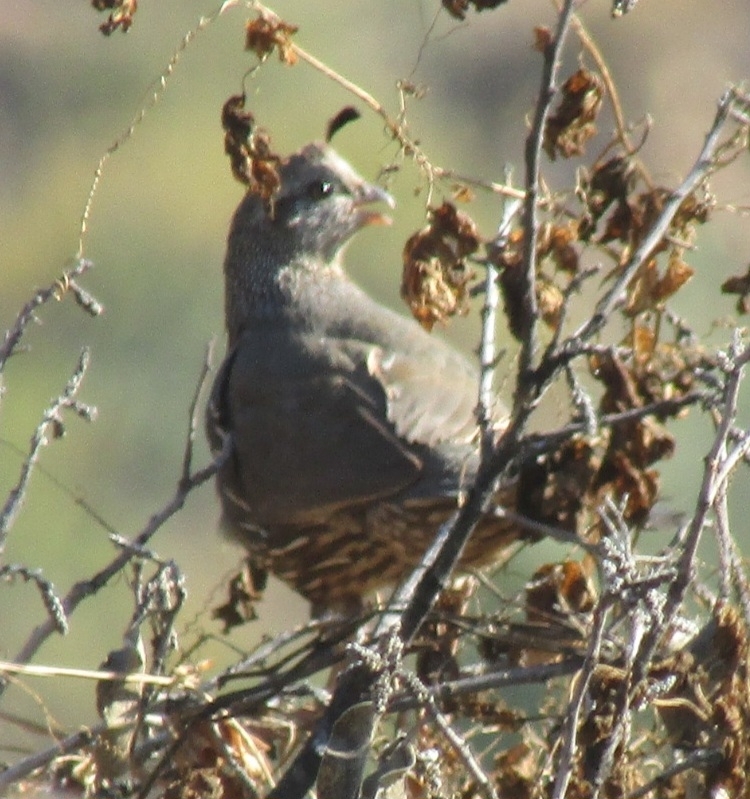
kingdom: Animalia
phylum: Chordata
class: Aves
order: Galliformes
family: Odontophoridae
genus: Callipepla
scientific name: Callipepla californica
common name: California quail
